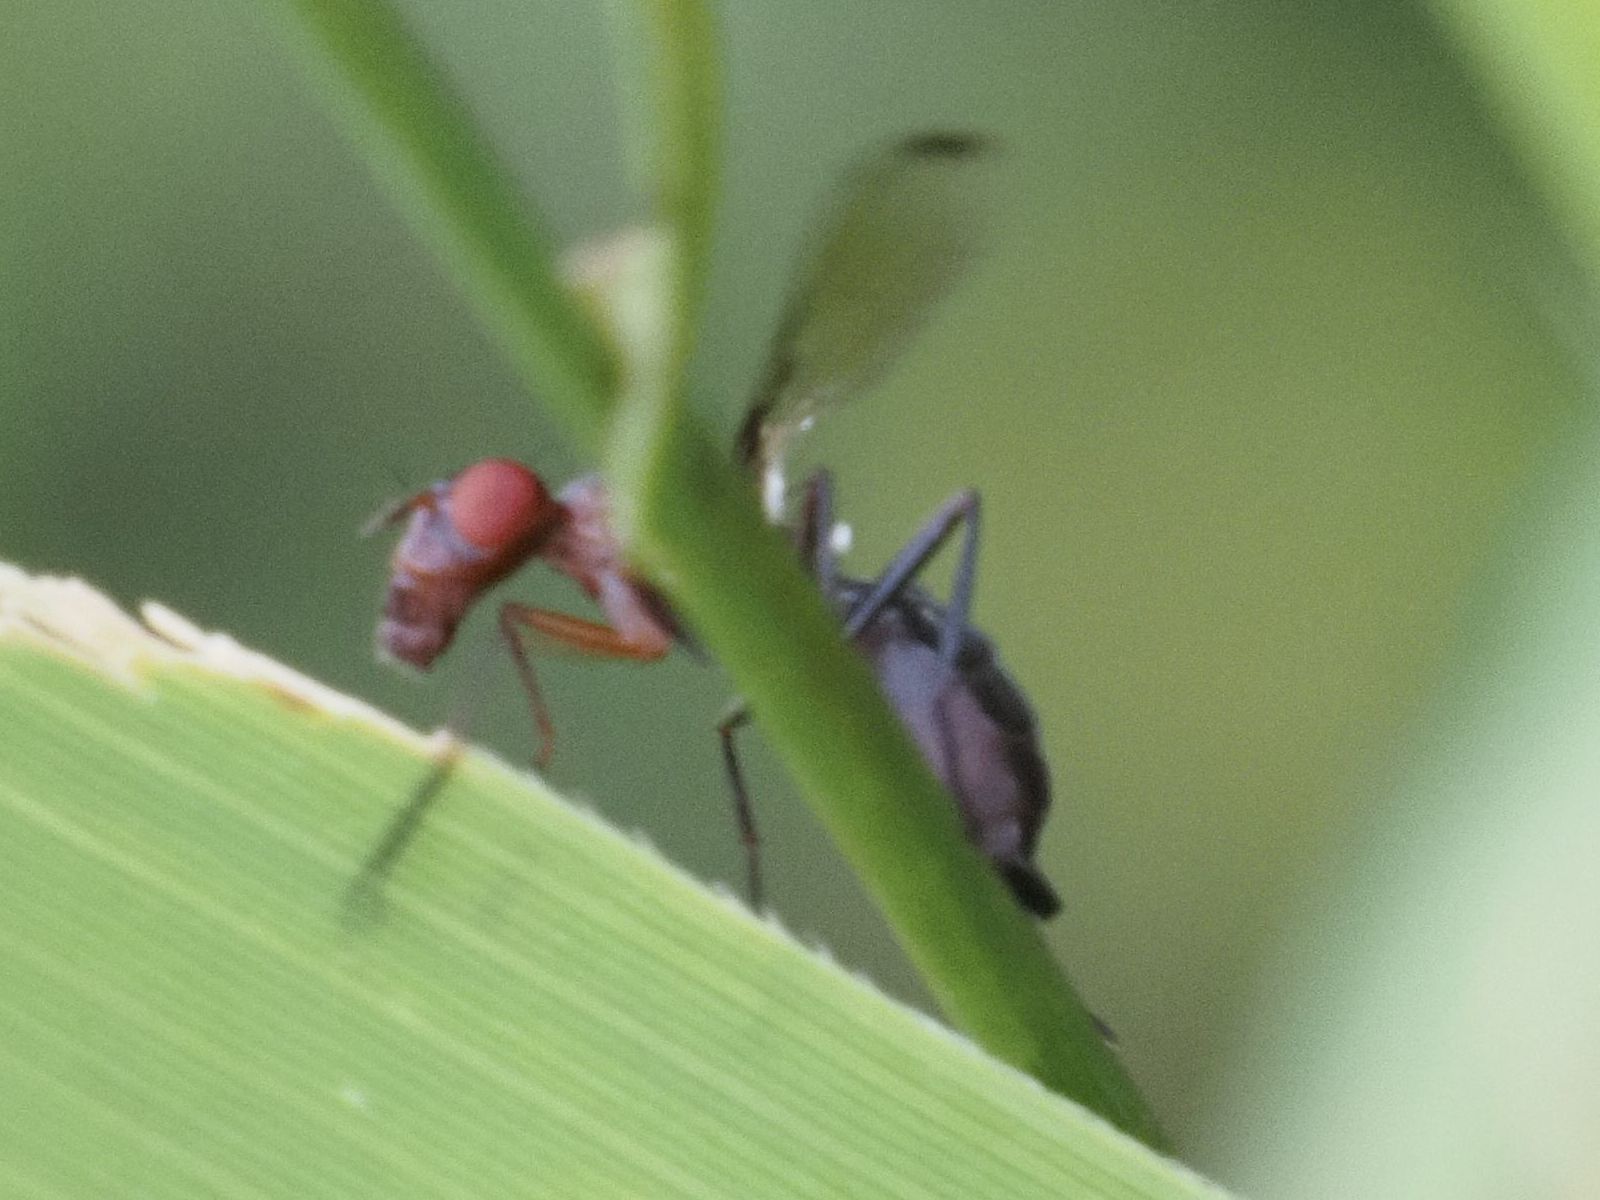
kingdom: Animalia
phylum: Arthropoda
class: Insecta
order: Diptera
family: Ulidiidae
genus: Cephalia
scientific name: Cephalia rufipes
